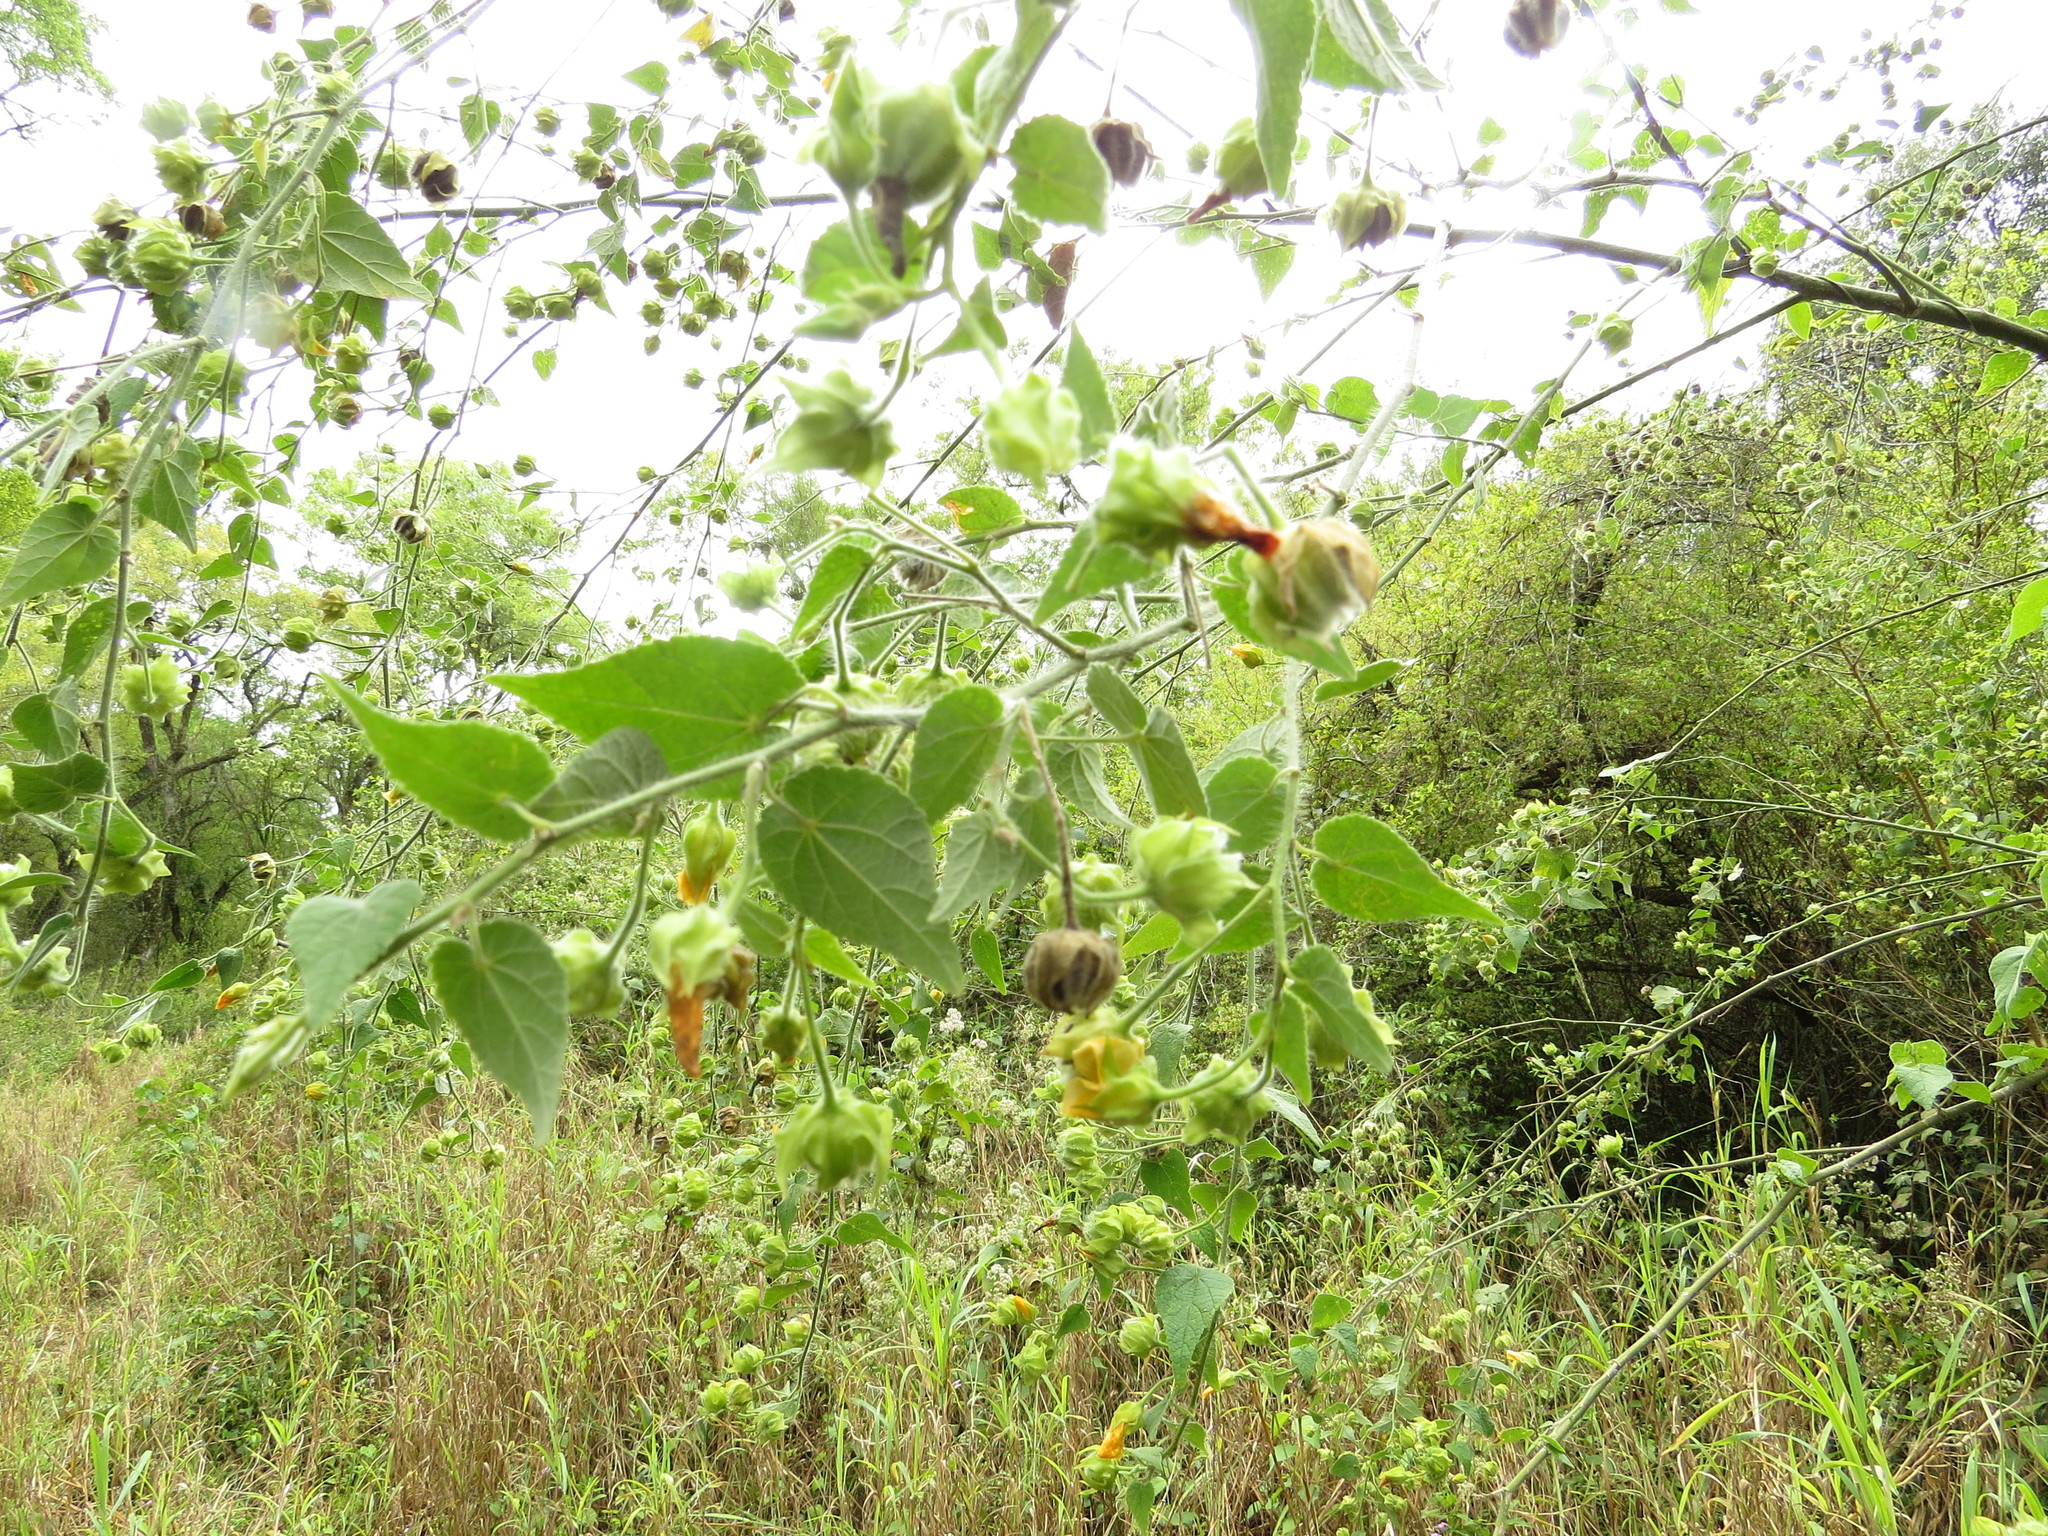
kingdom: Plantae
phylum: Tracheophyta
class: Magnoliopsida
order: Malvales
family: Malvaceae
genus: Abutilon
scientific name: Abutilon grandifolium
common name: Hairy abutilon
